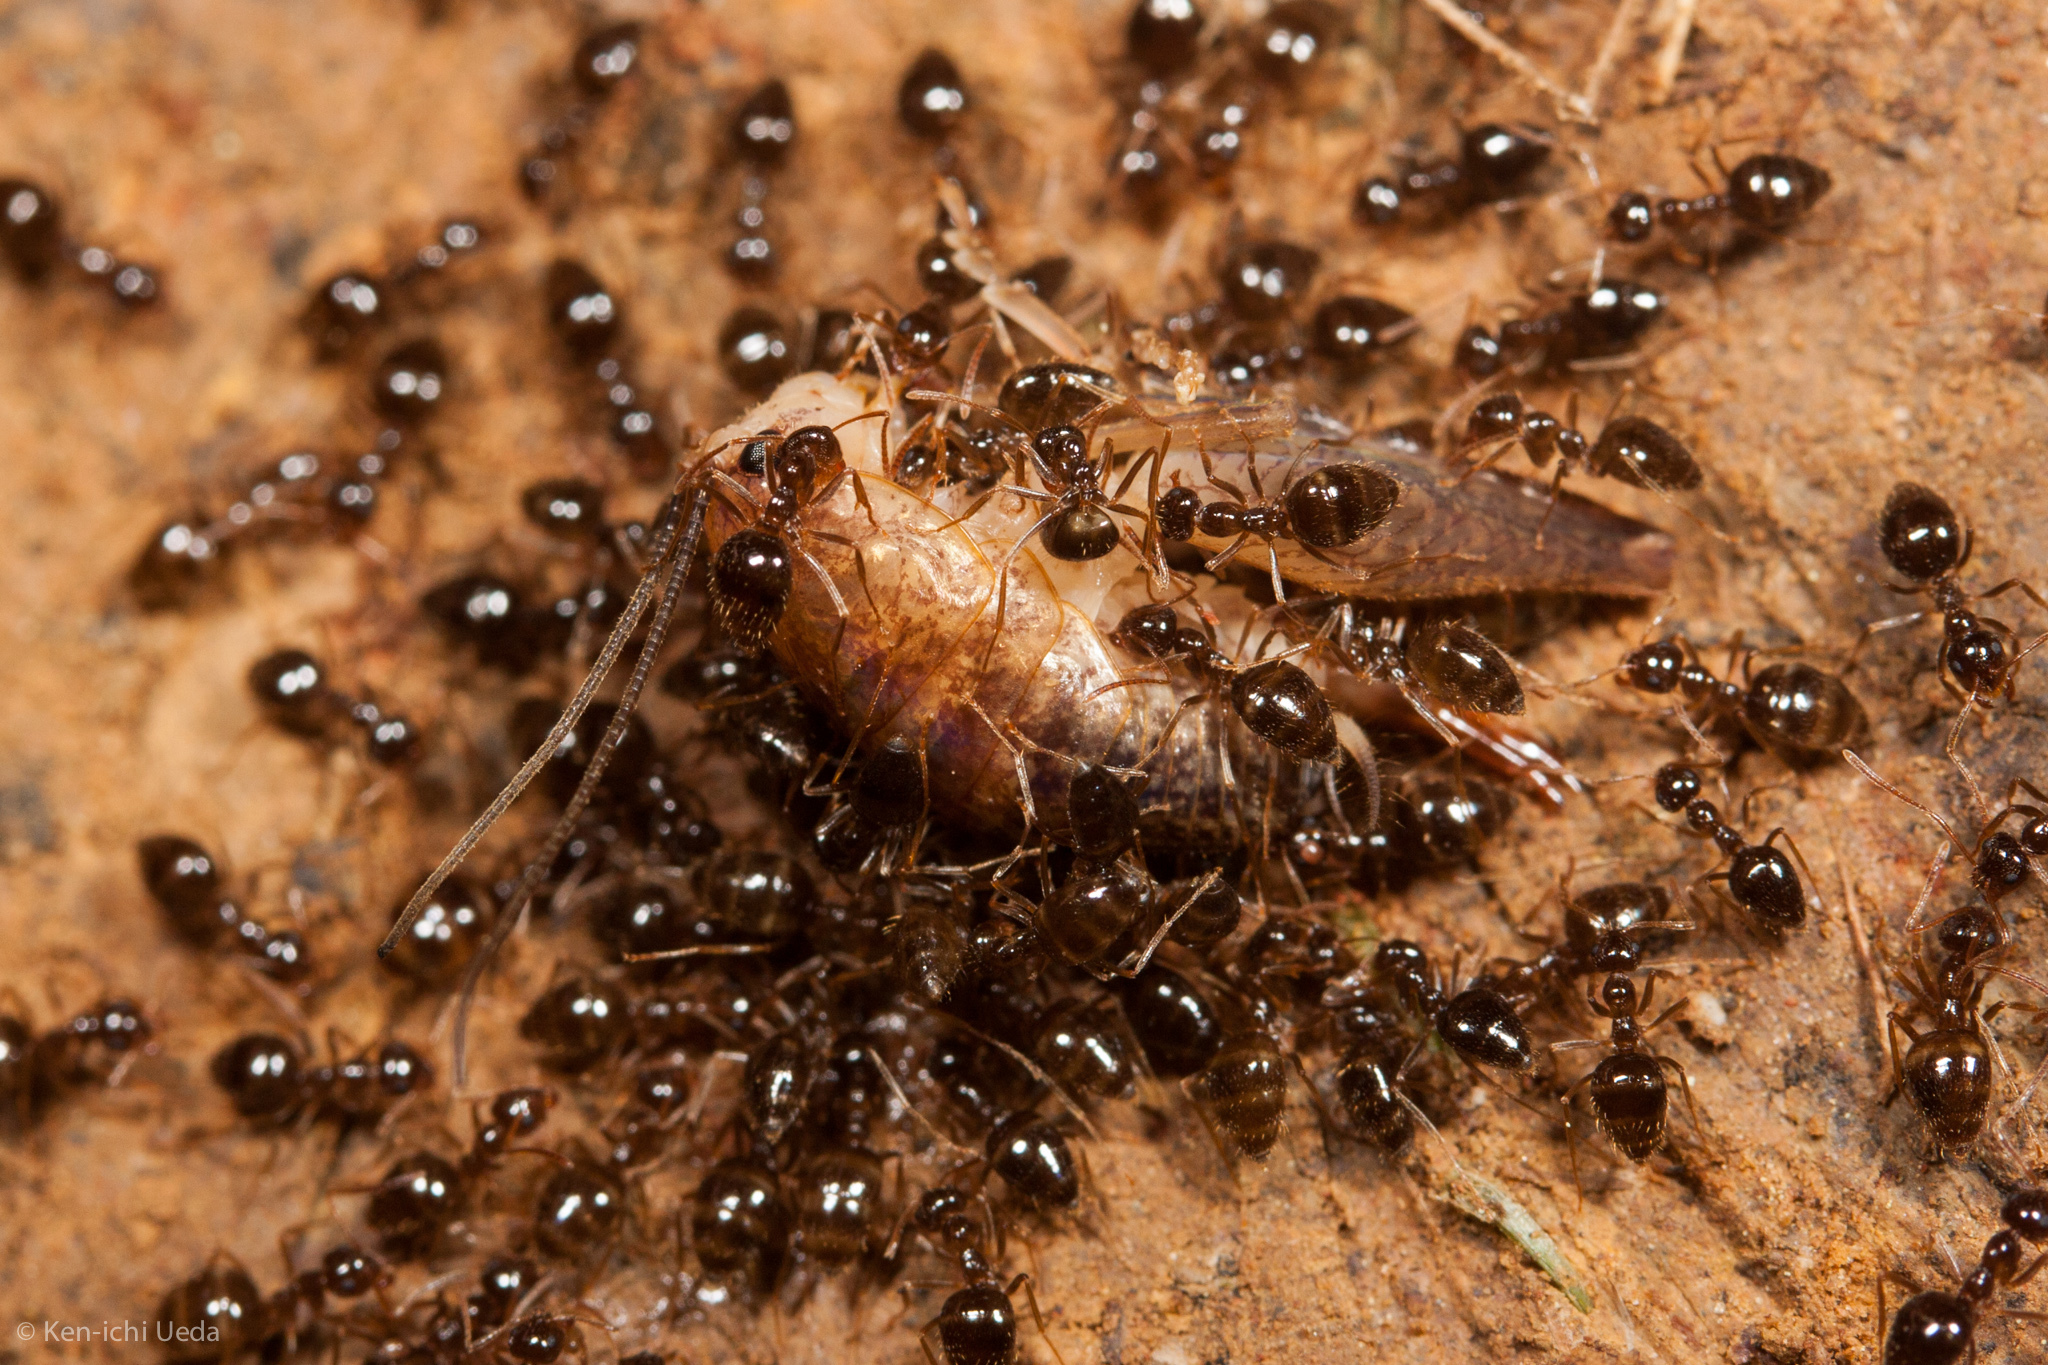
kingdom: Animalia
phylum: Arthropoda
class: Insecta
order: Hymenoptera
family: Formicidae
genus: Prenolepis
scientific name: Prenolepis imparis
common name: Small honey ant
